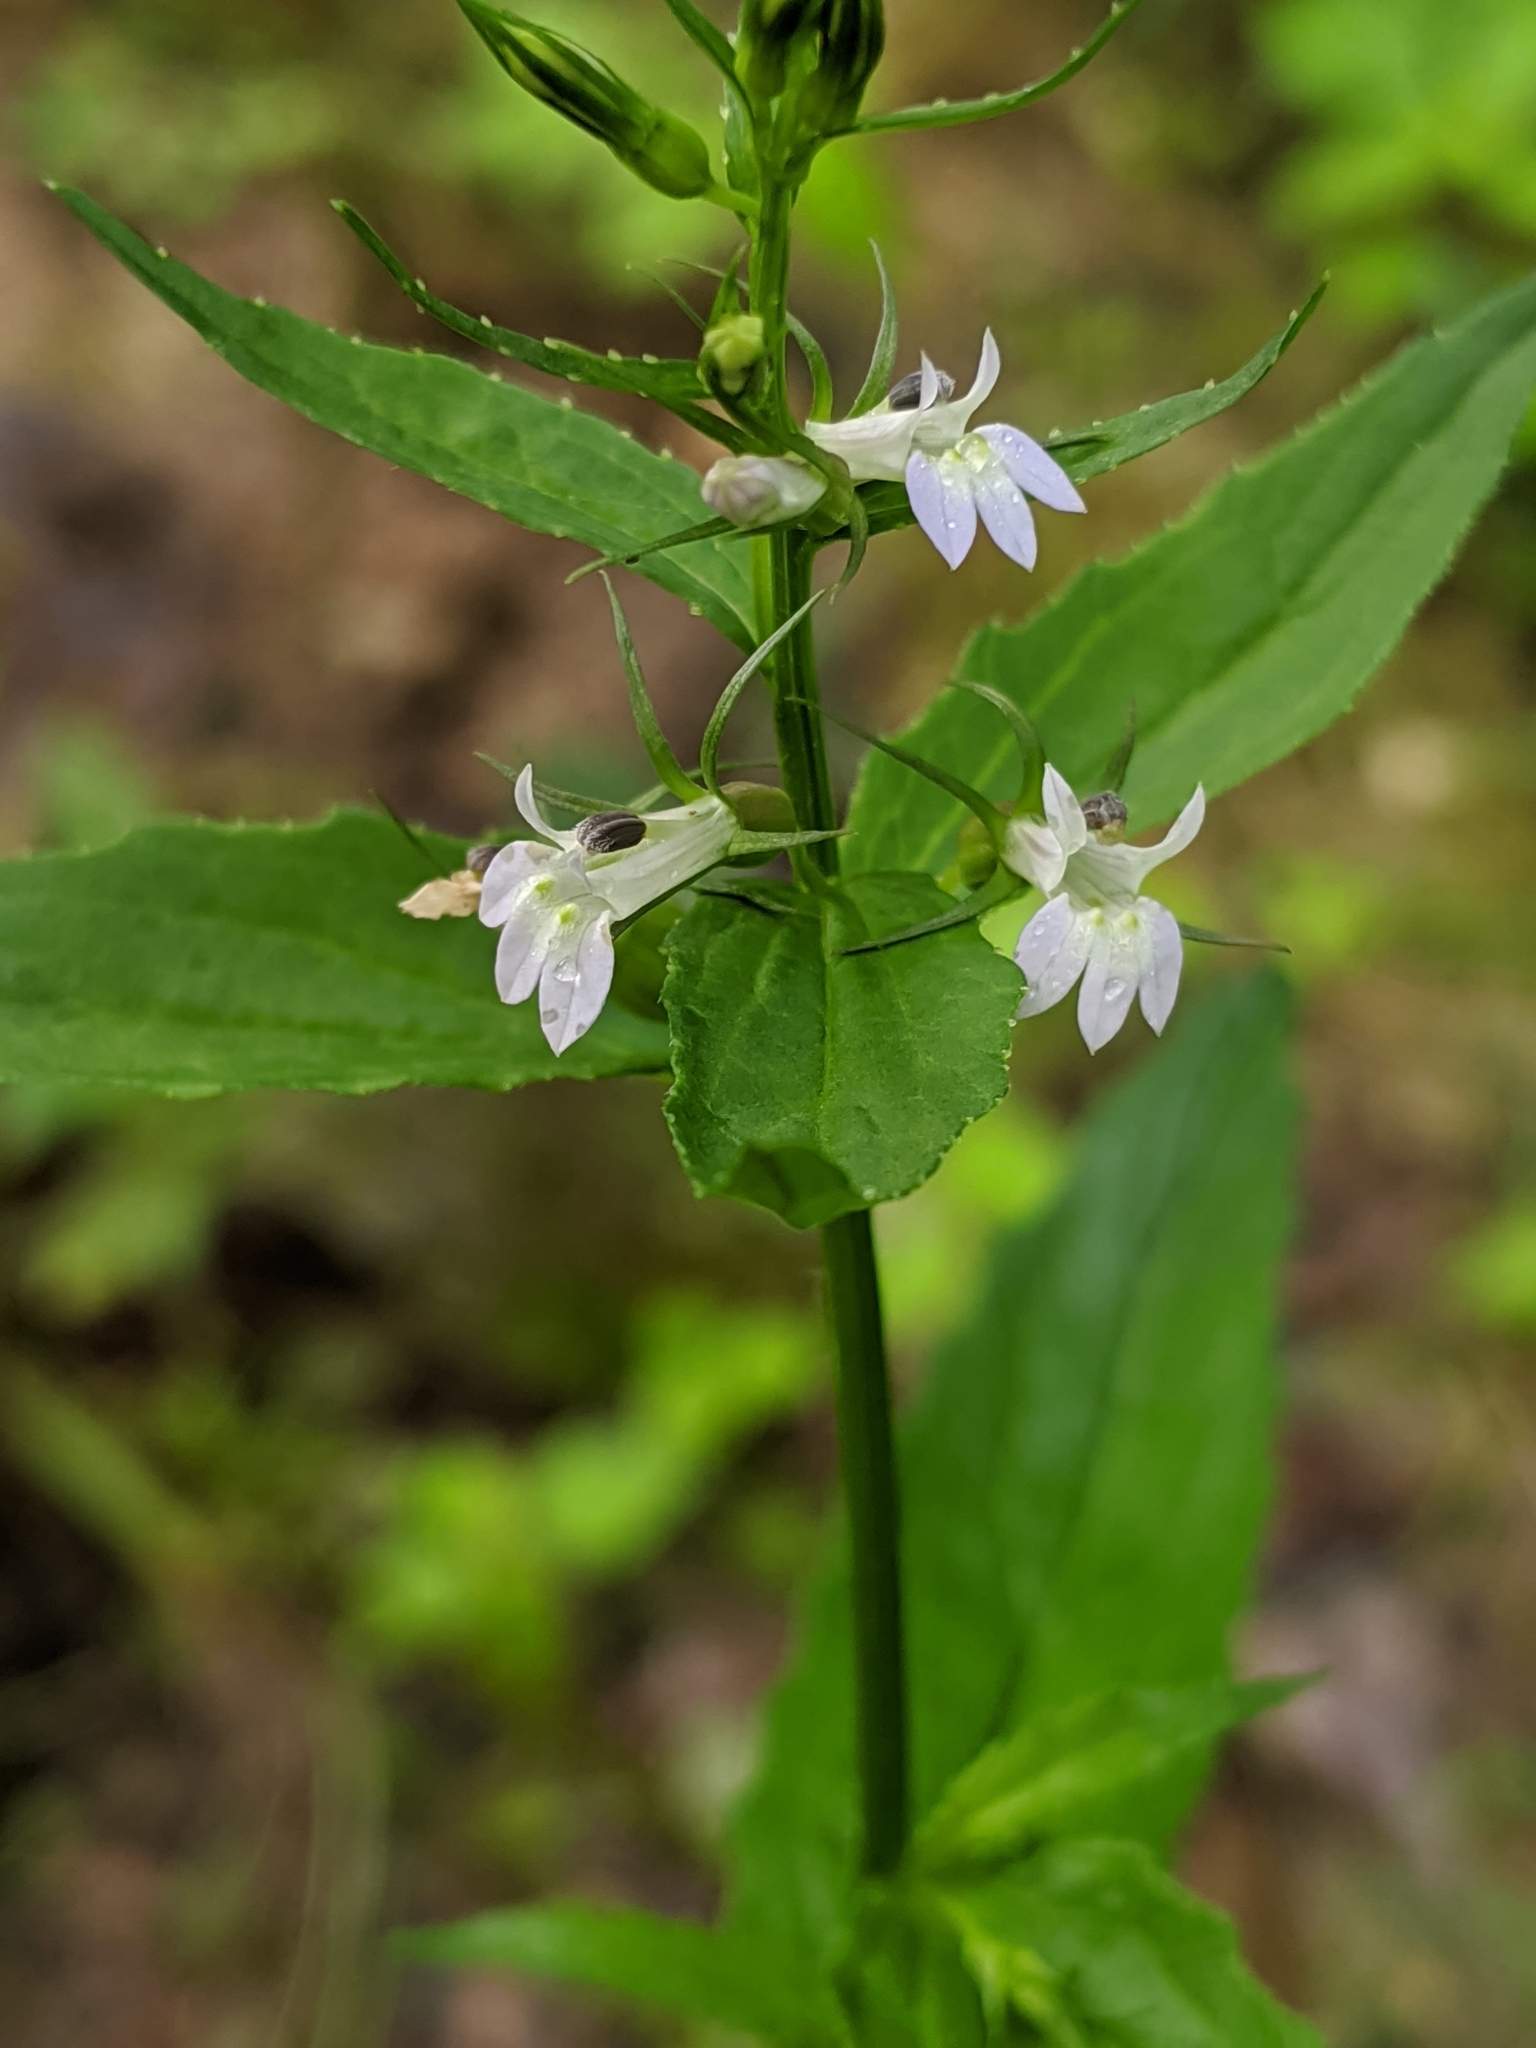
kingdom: Plantae
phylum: Tracheophyta
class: Magnoliopsida
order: Asterales
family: Campanulaceae
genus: Lobelia
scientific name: Lobelia inflata
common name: Indian tobacco
